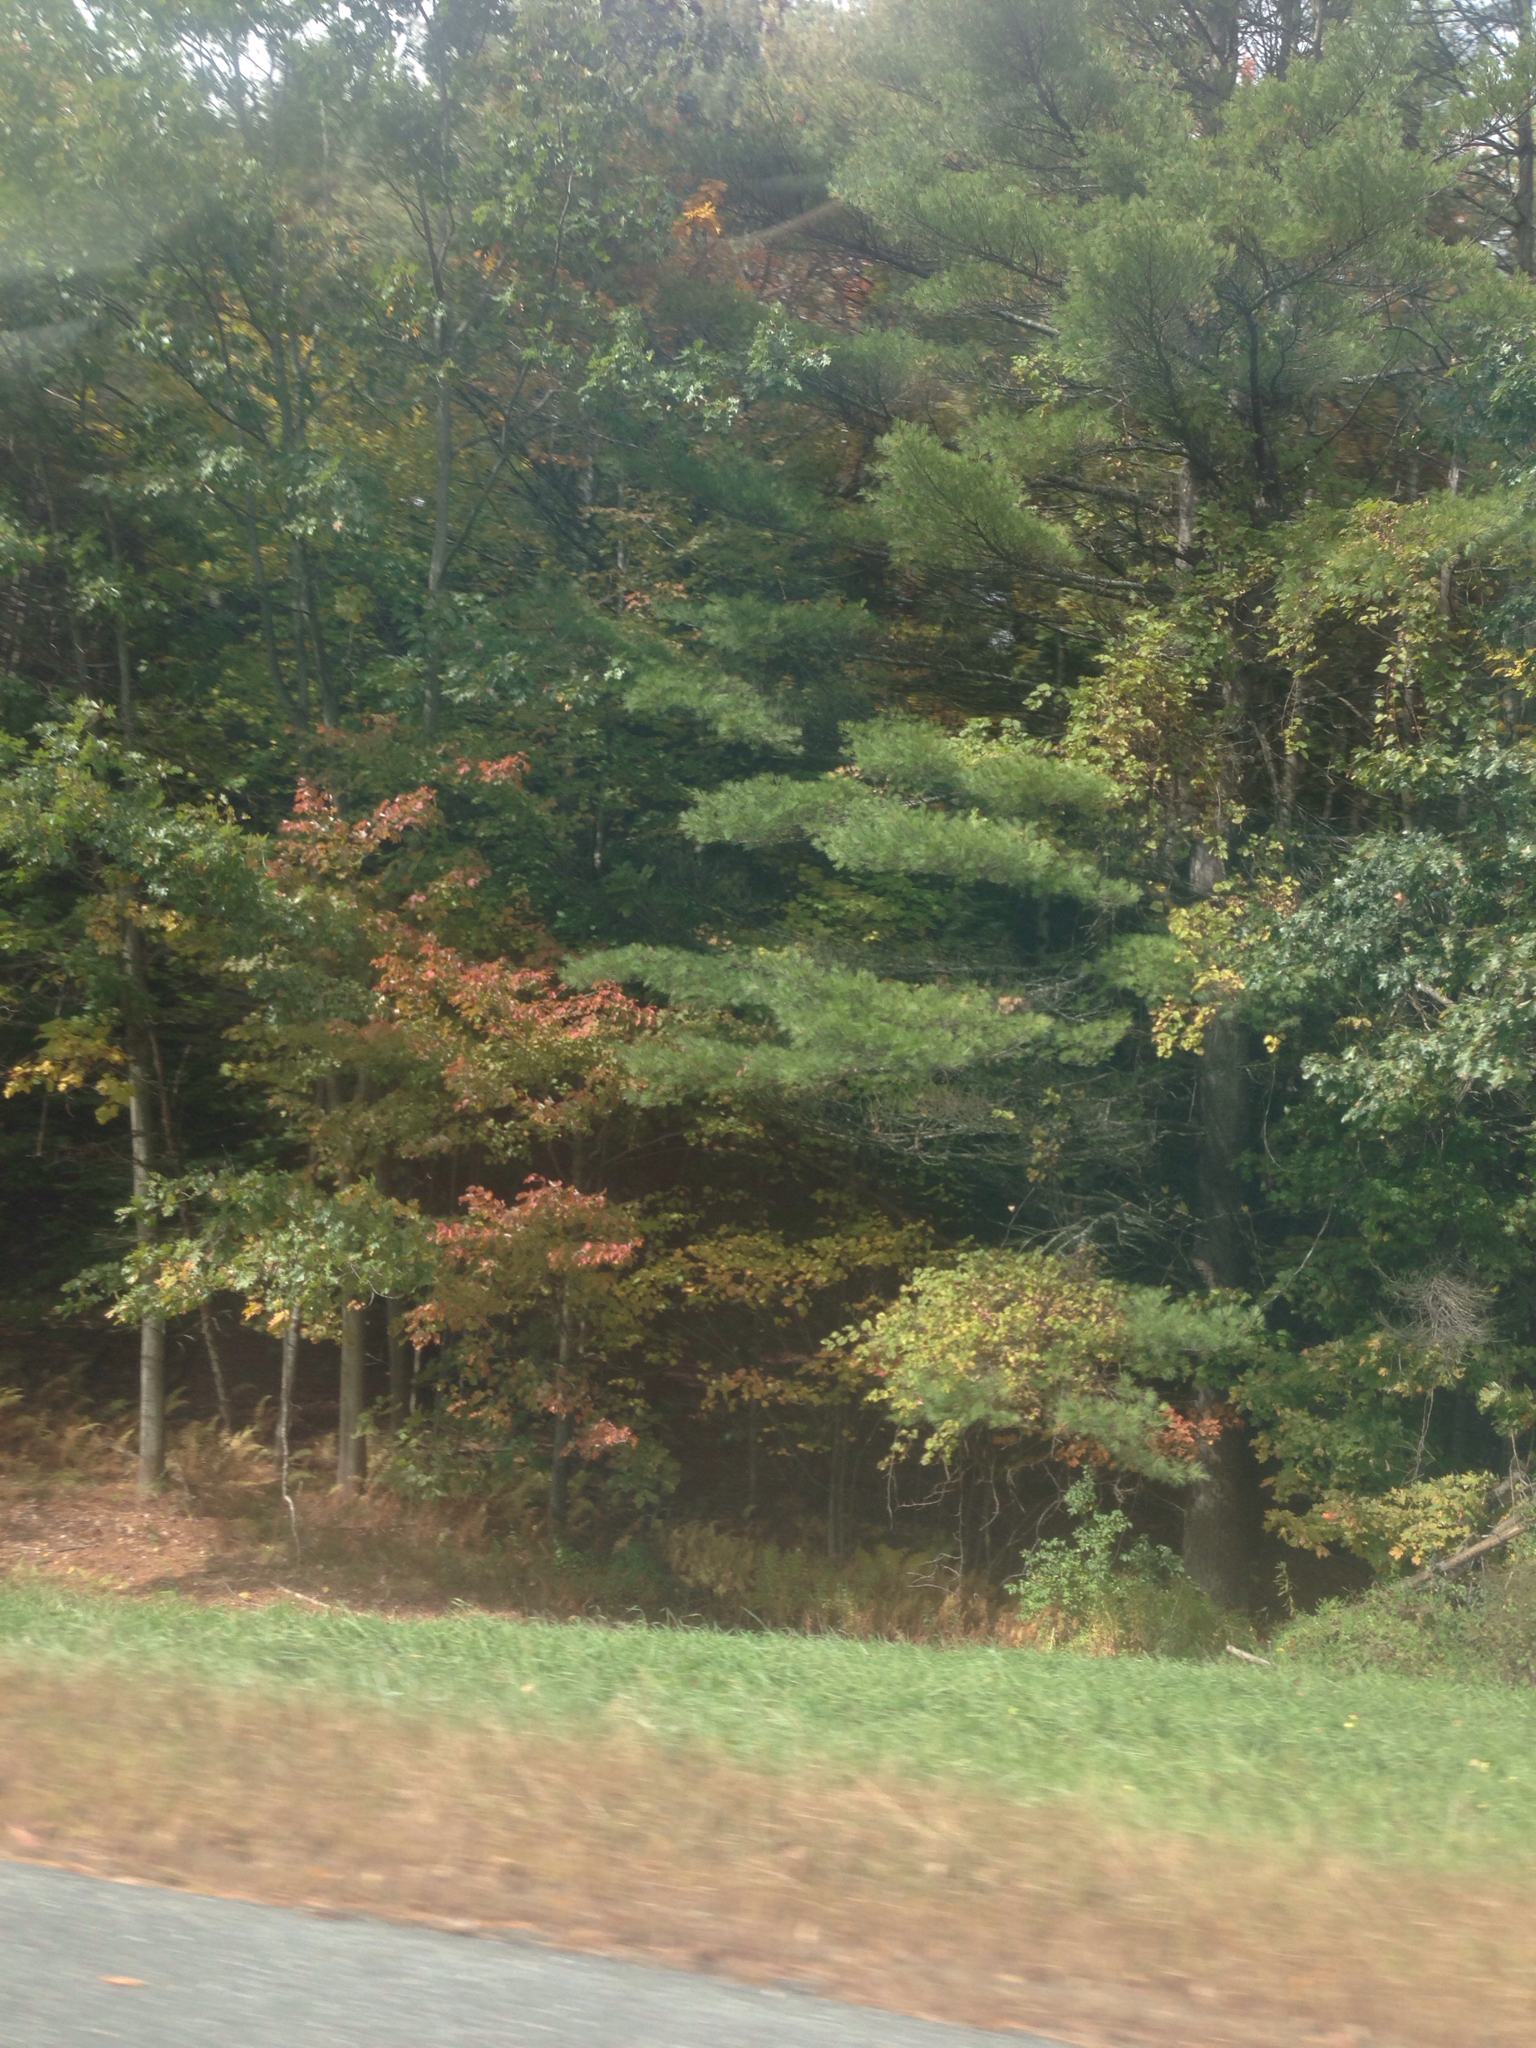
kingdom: Plantae
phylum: Tracheophyta
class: Pinopsida
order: Pinales
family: Pinaceae
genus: Pinus
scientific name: Pinus strobus
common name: Weymouth pine
